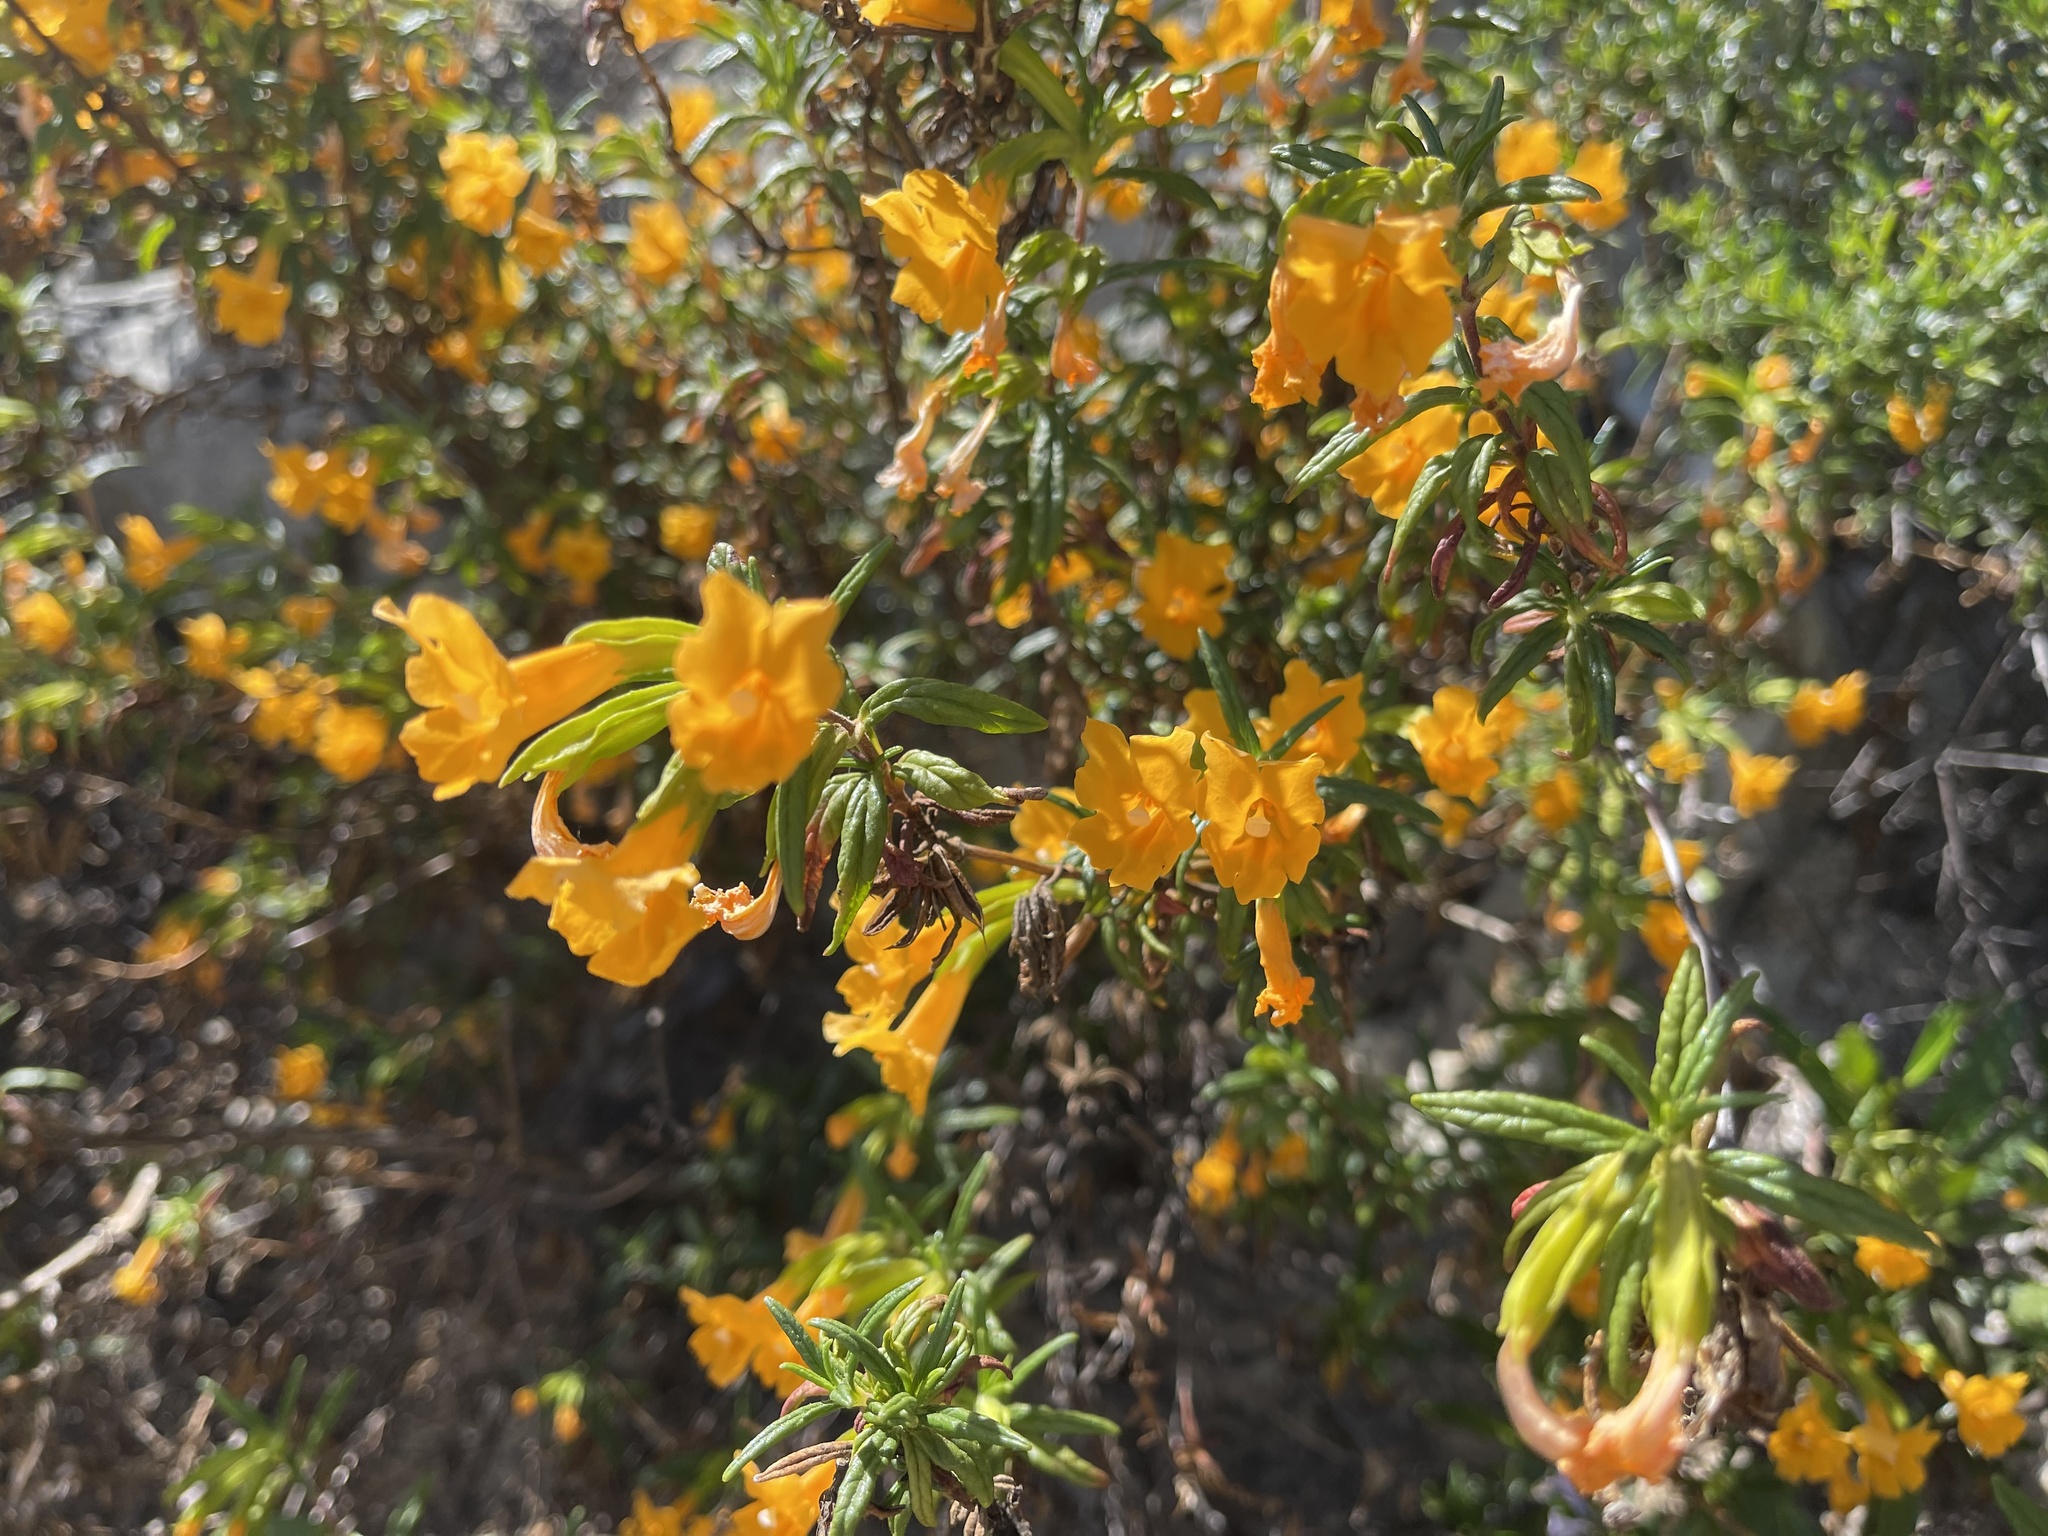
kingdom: Plantae
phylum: Tracheophyta
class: Magnoliopsida
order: Lamiales
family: Phrymaceae
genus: Diplacus
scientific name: Diplacus aurantiacus
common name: Bush monkey-flower
